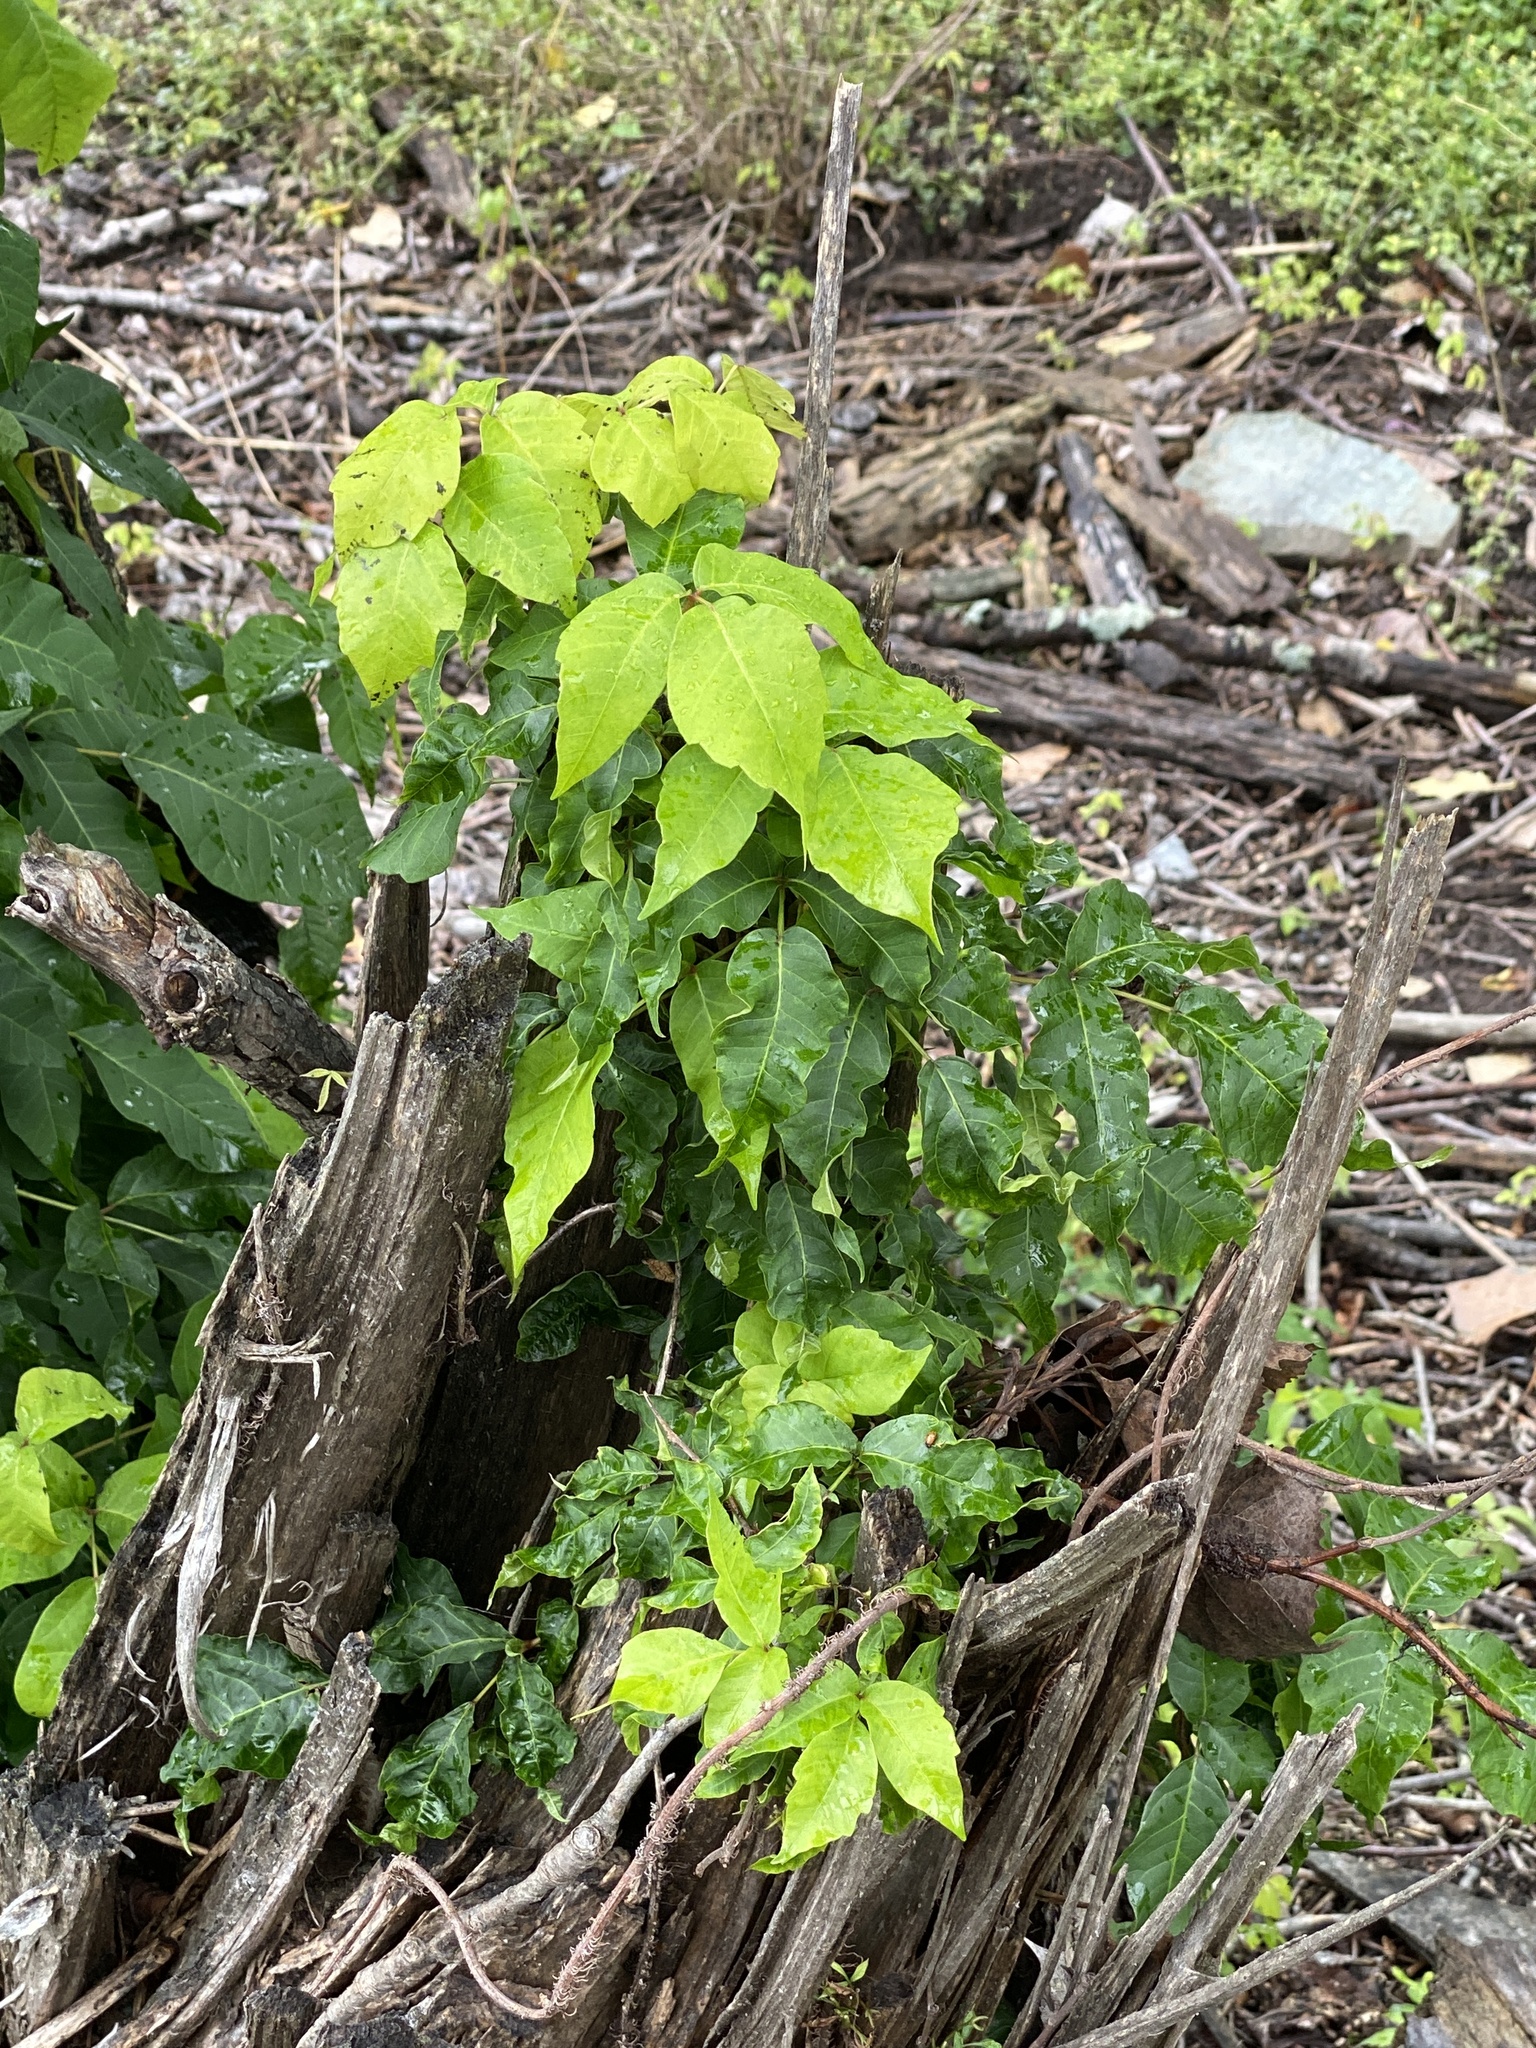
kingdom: Plantae
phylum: Tracheophyta
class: Magnoliopsida
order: Sapindales
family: Anacardiaceae
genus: Toxicodendron
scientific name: Toxicodendron radicans
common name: Poison ivy
